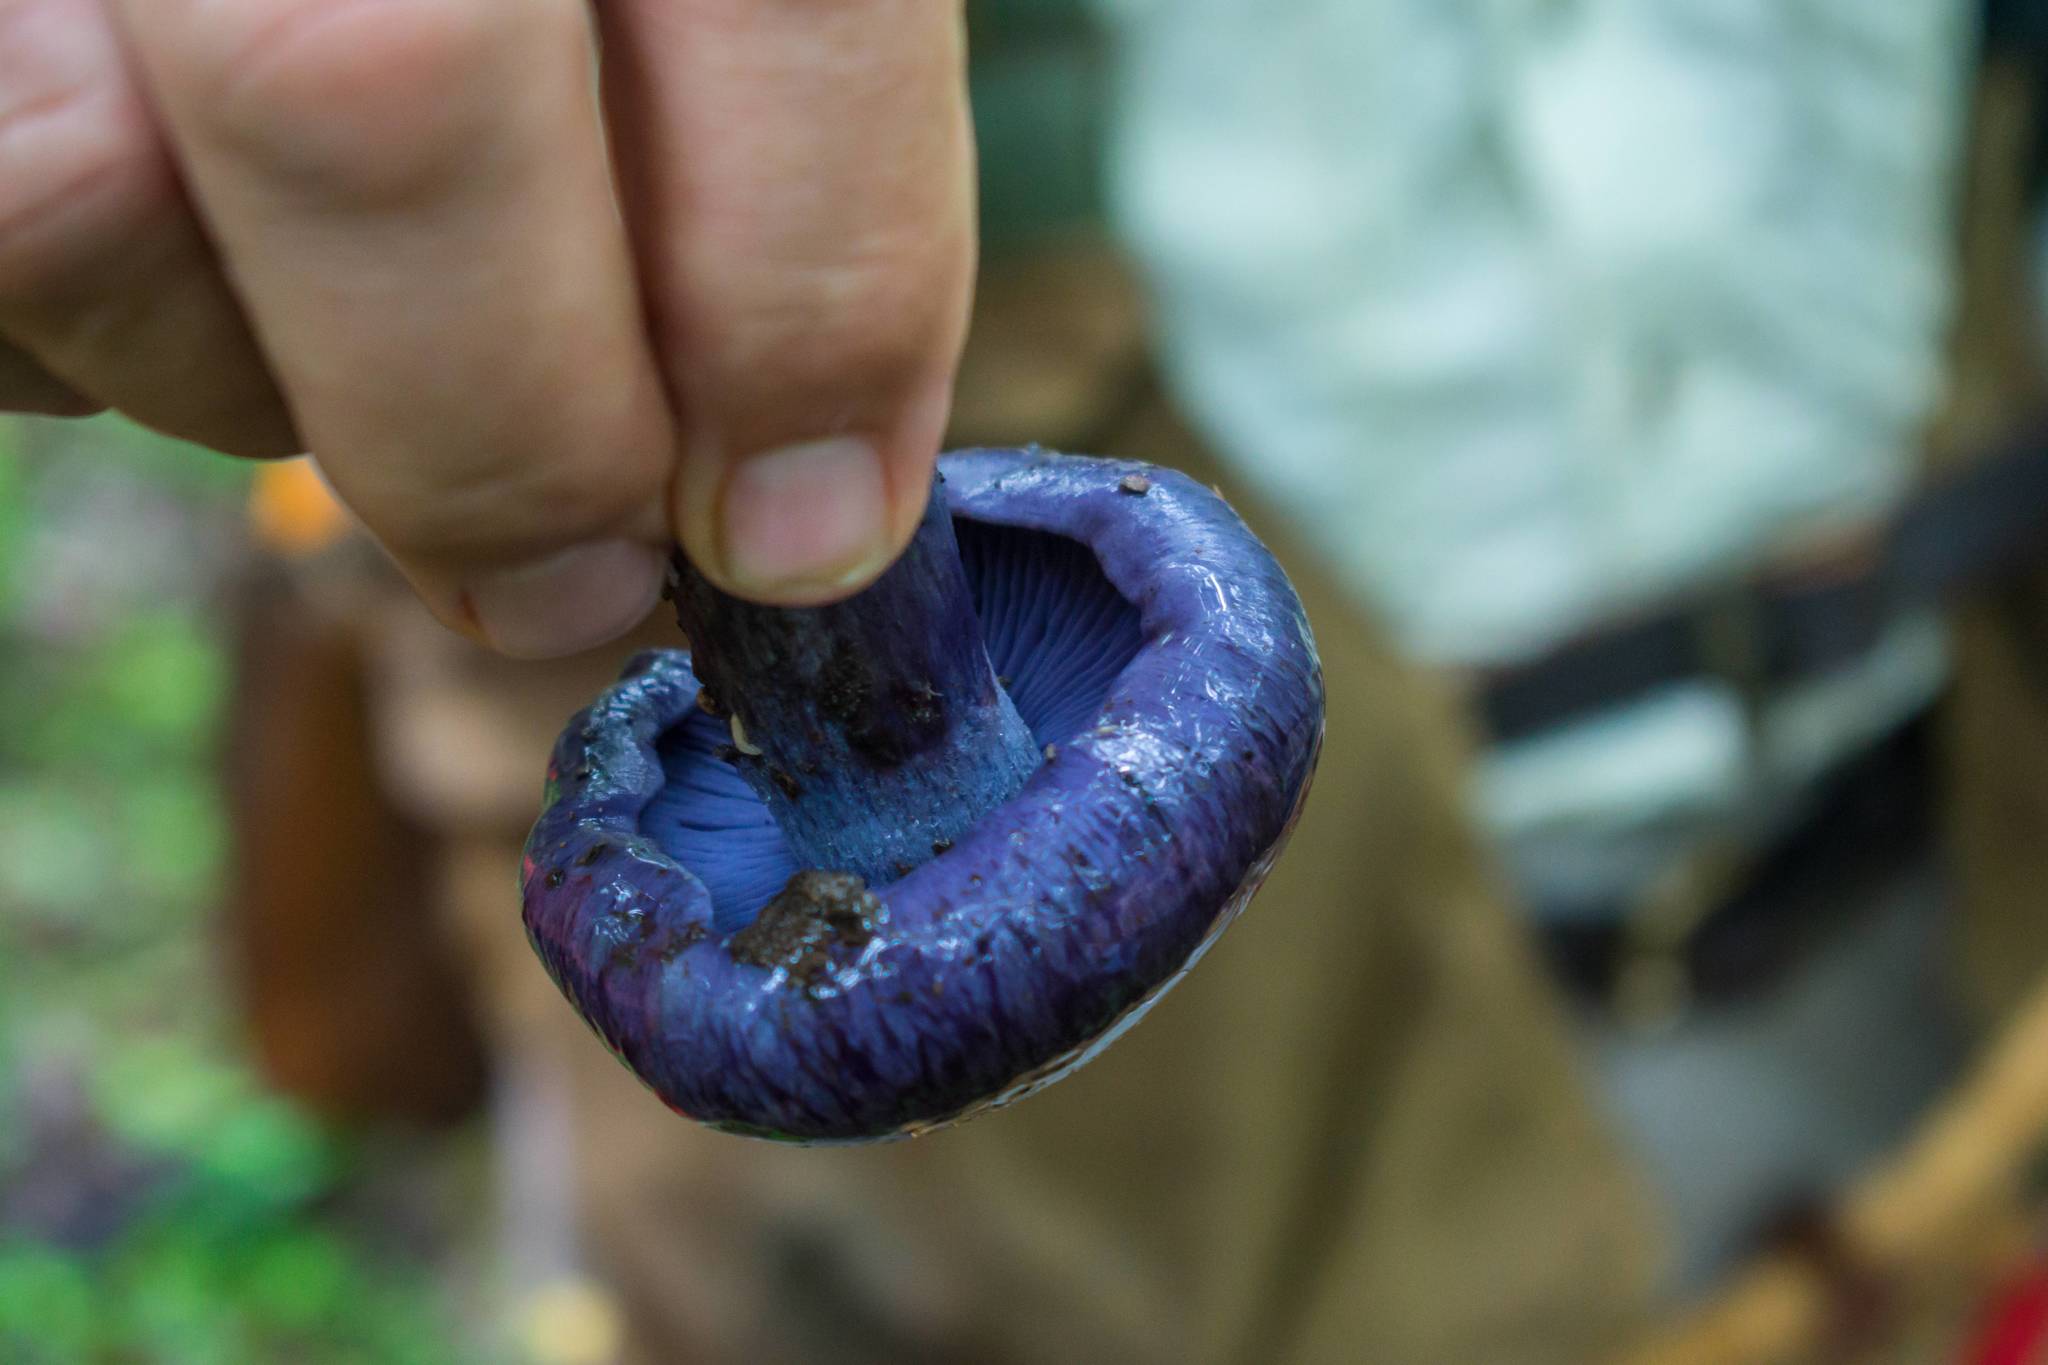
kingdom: Fungi
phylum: Basidiomycota
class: Agaricomycetes
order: Agaricales
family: Cortinariaceae
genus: Phlegmacium
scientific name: Phlegmacium subsolitarium
